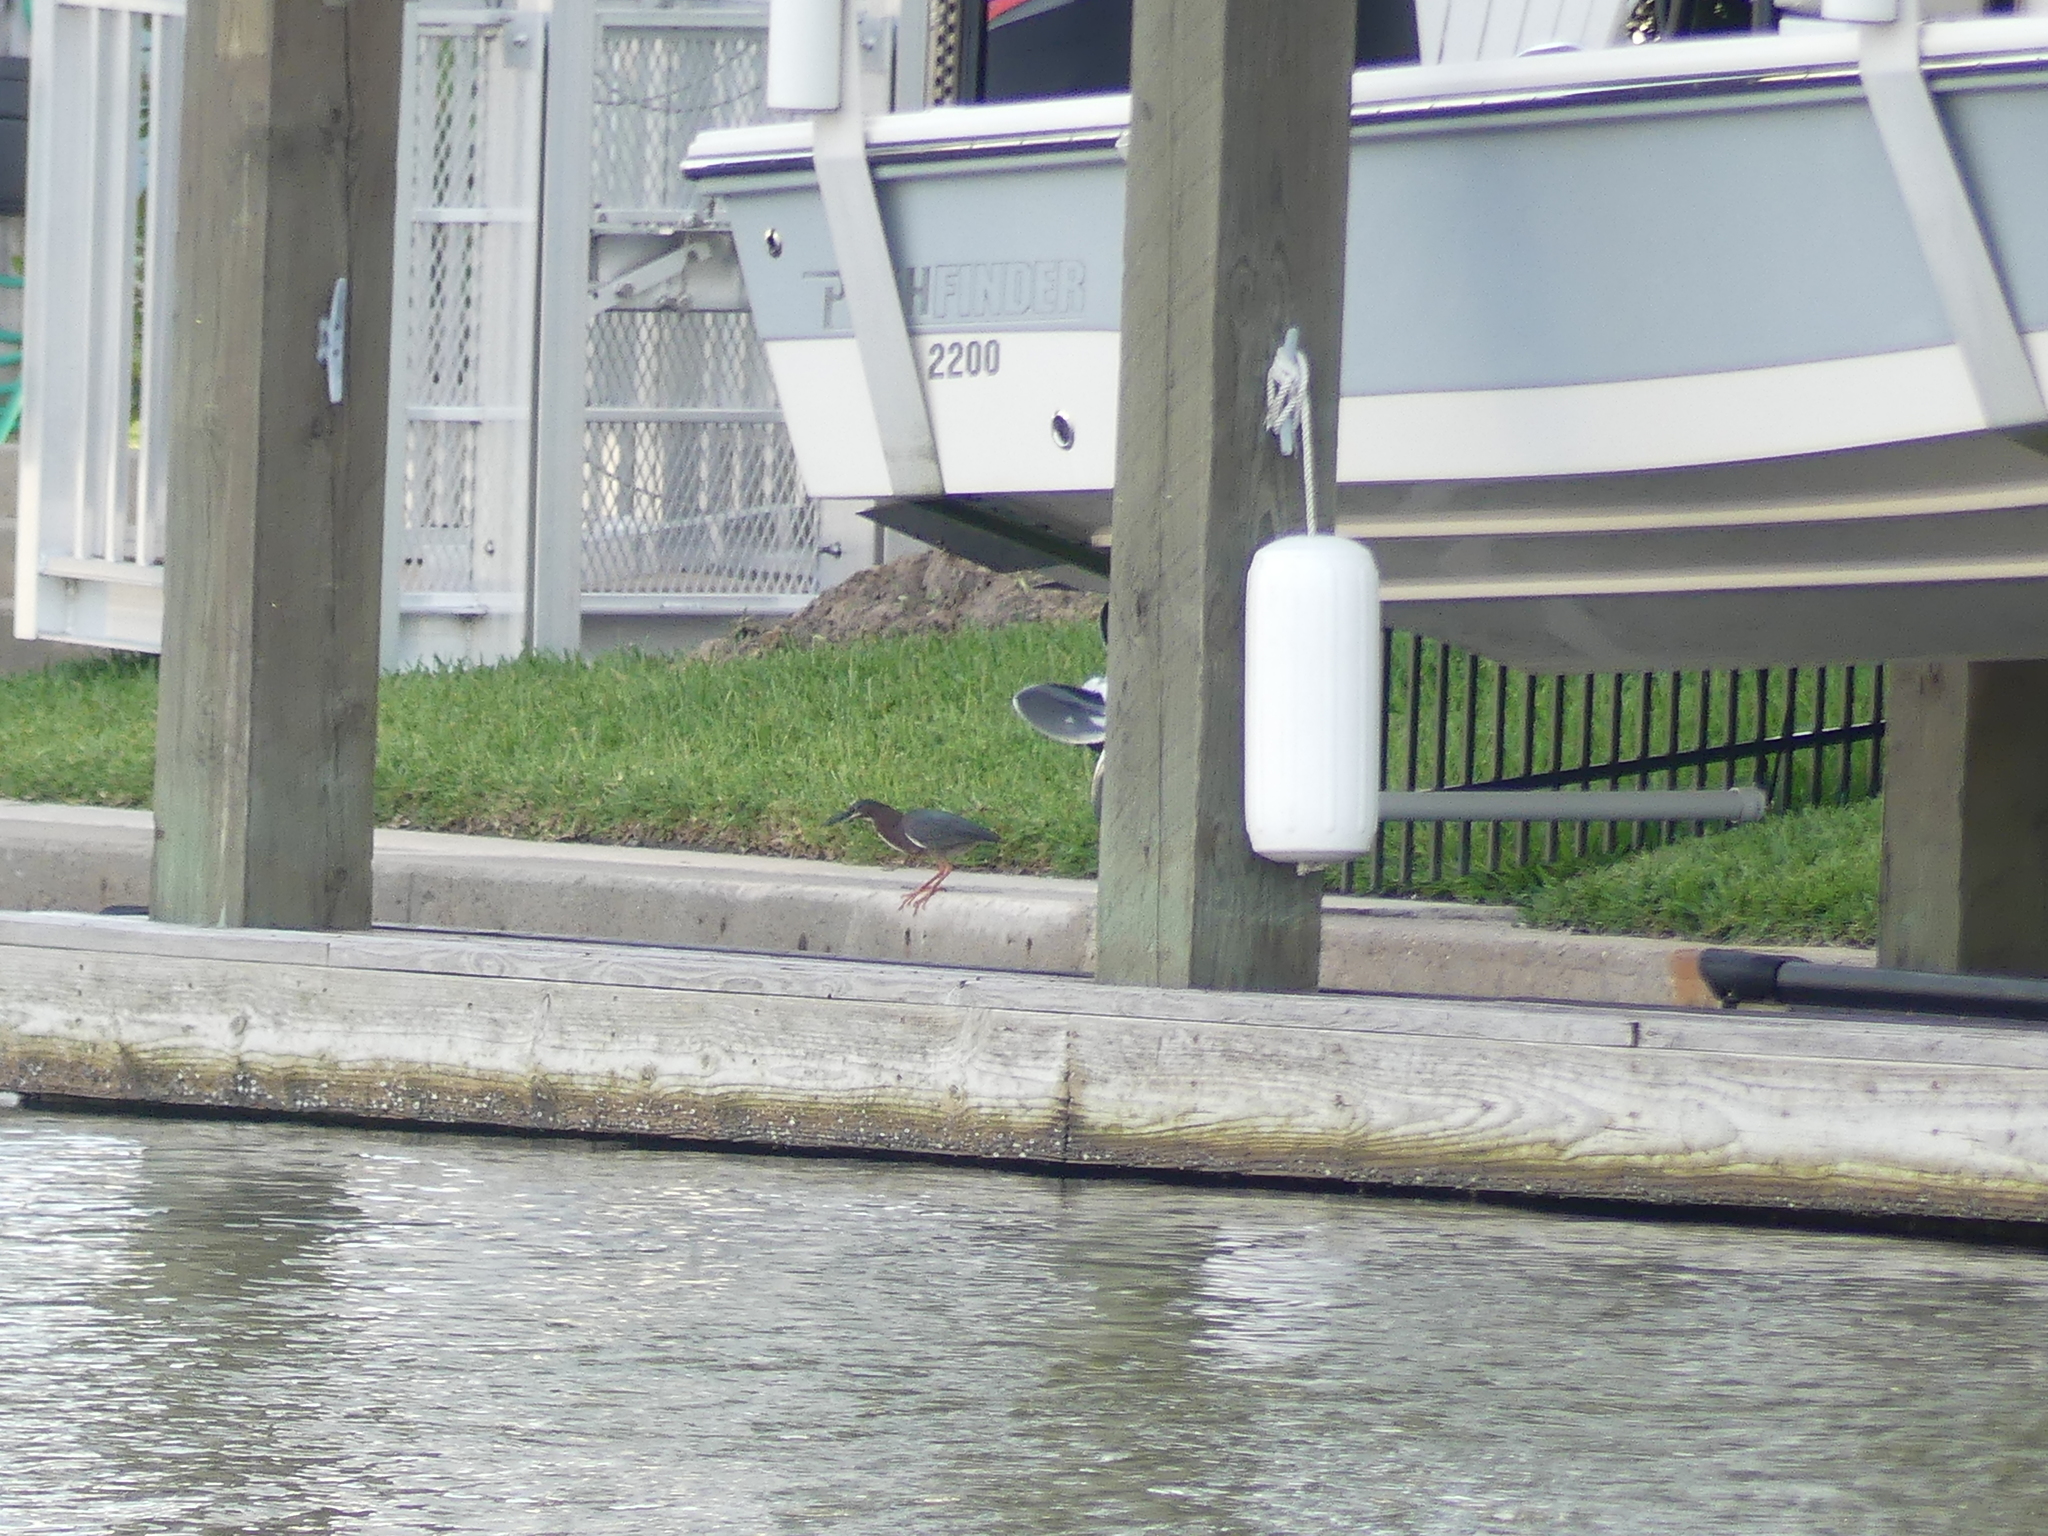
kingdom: Animalia
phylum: Chordata
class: Aves
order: Pelecaniformes
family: Ardeidae
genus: Butorides
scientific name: Butorides virescens
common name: Green heron
